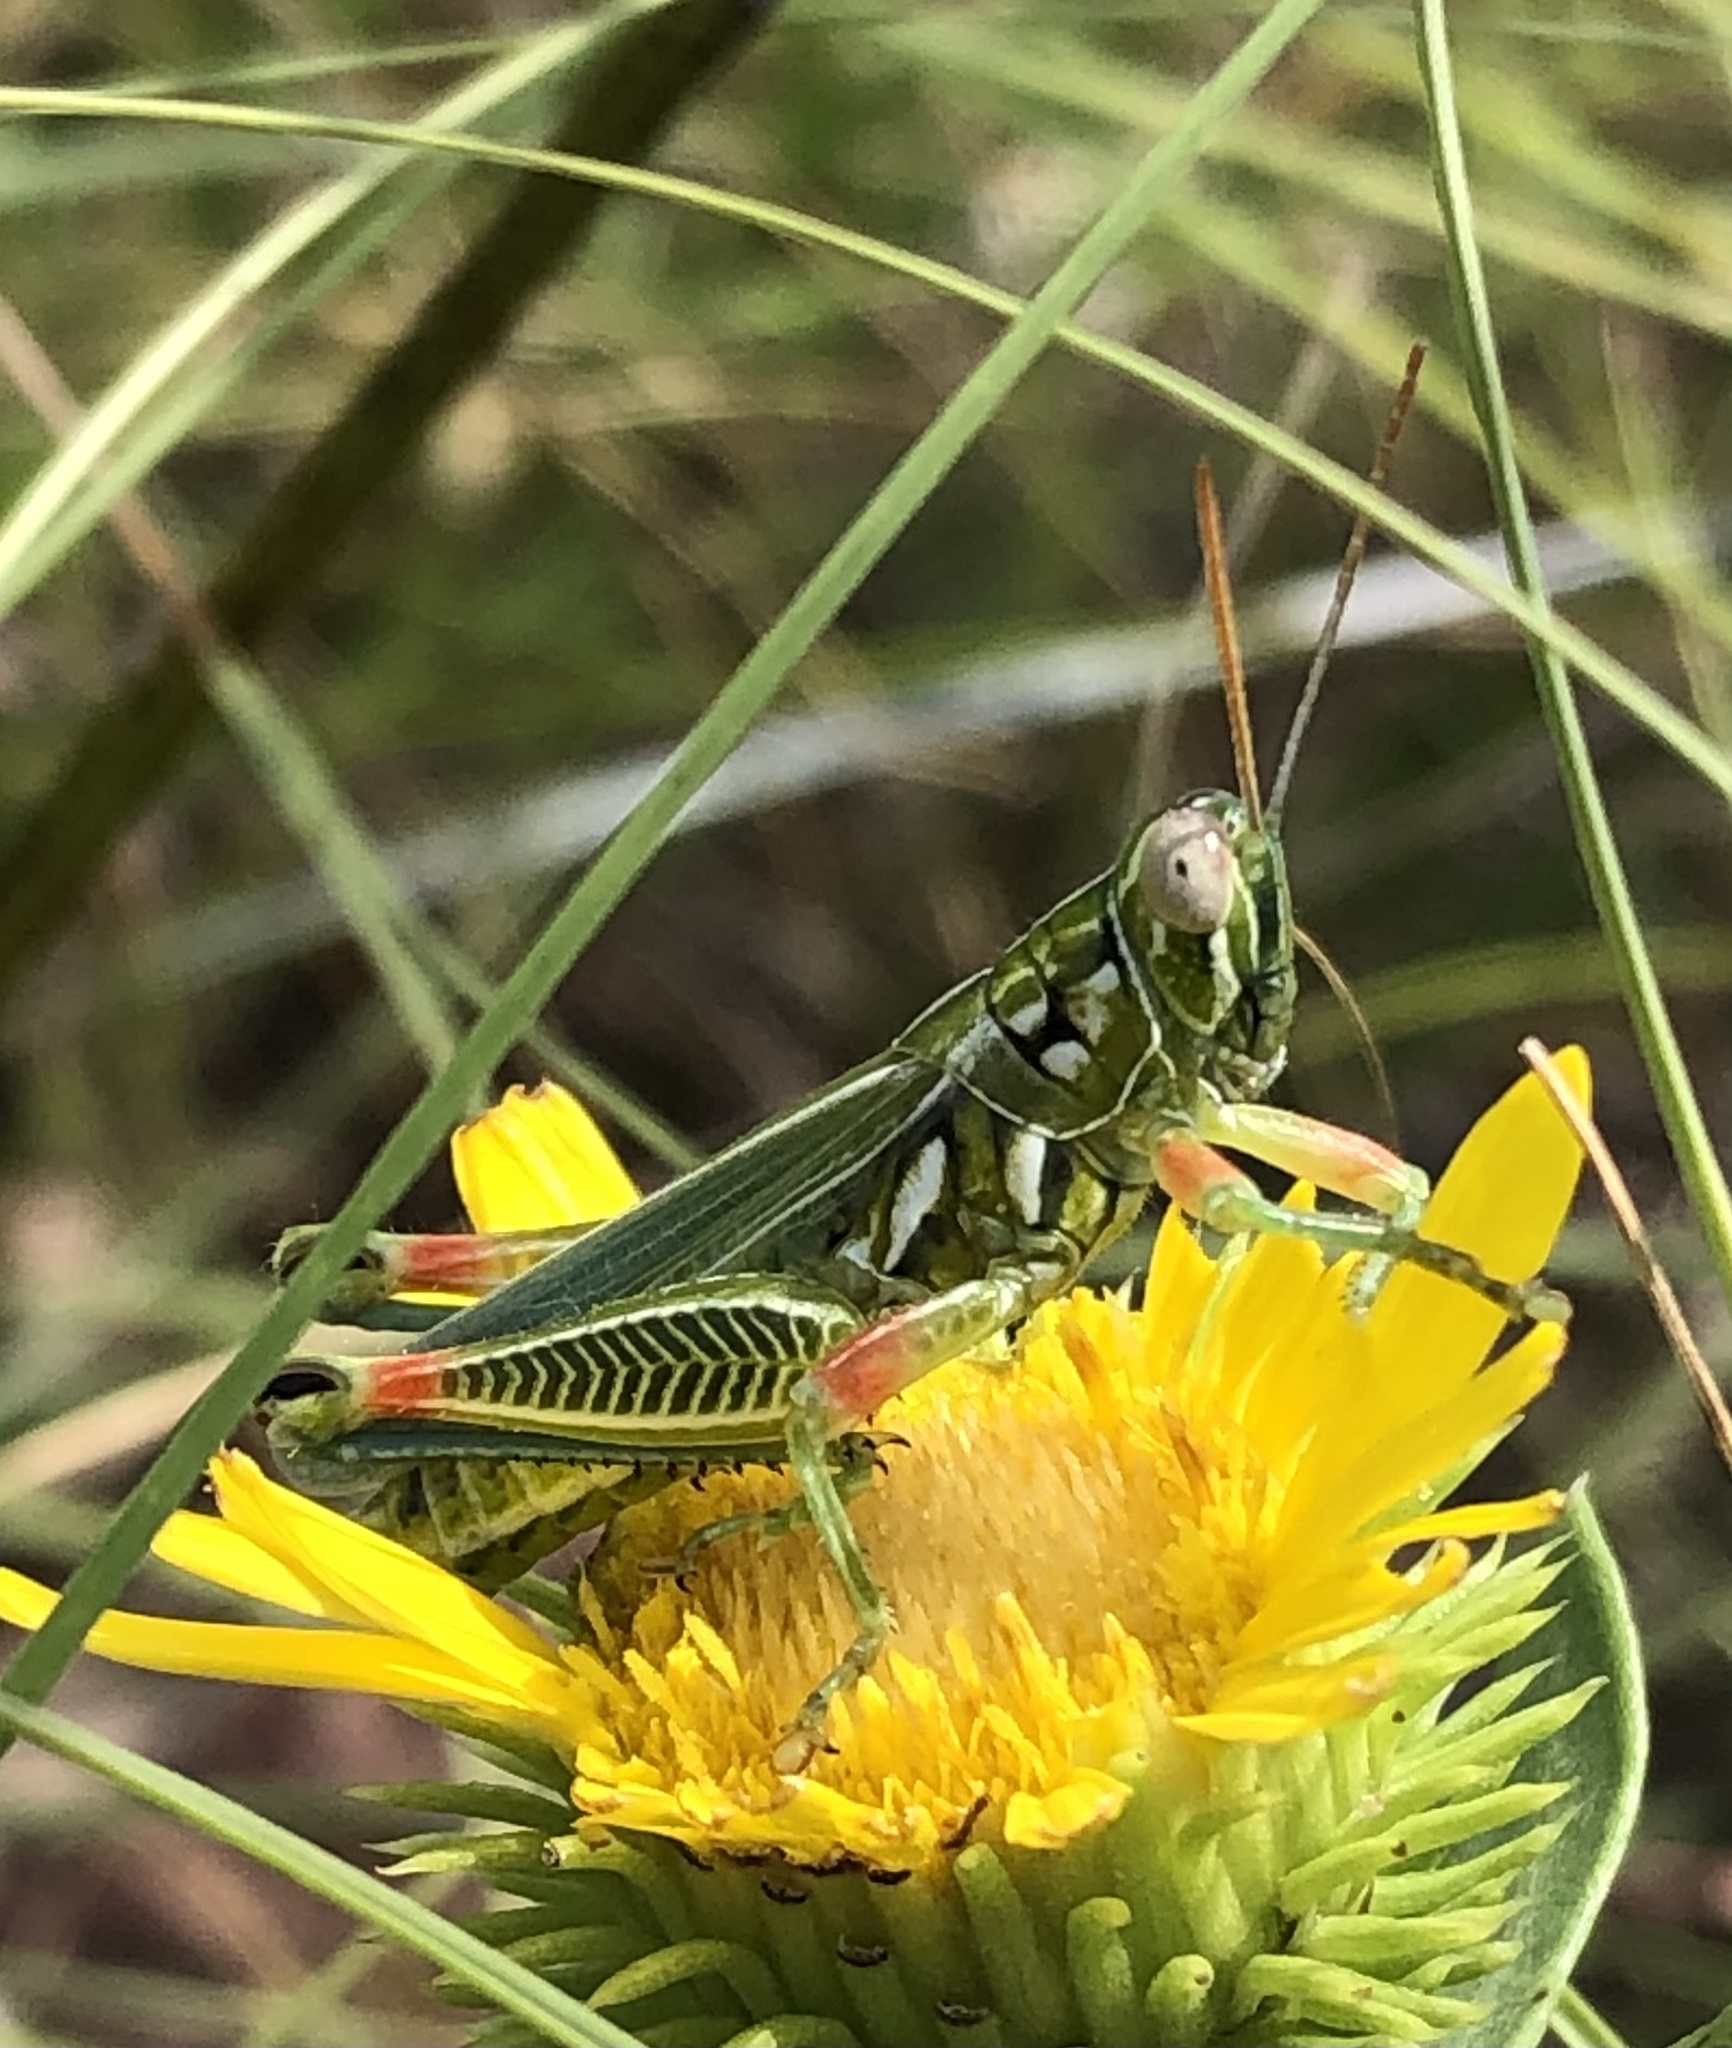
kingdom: Animalia
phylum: Arthropoda
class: Insecta
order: Orthoptera
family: Acrididae
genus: Hesperotettix
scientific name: Hesperotettix viridis
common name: Meadow purple-striped grasshopper
